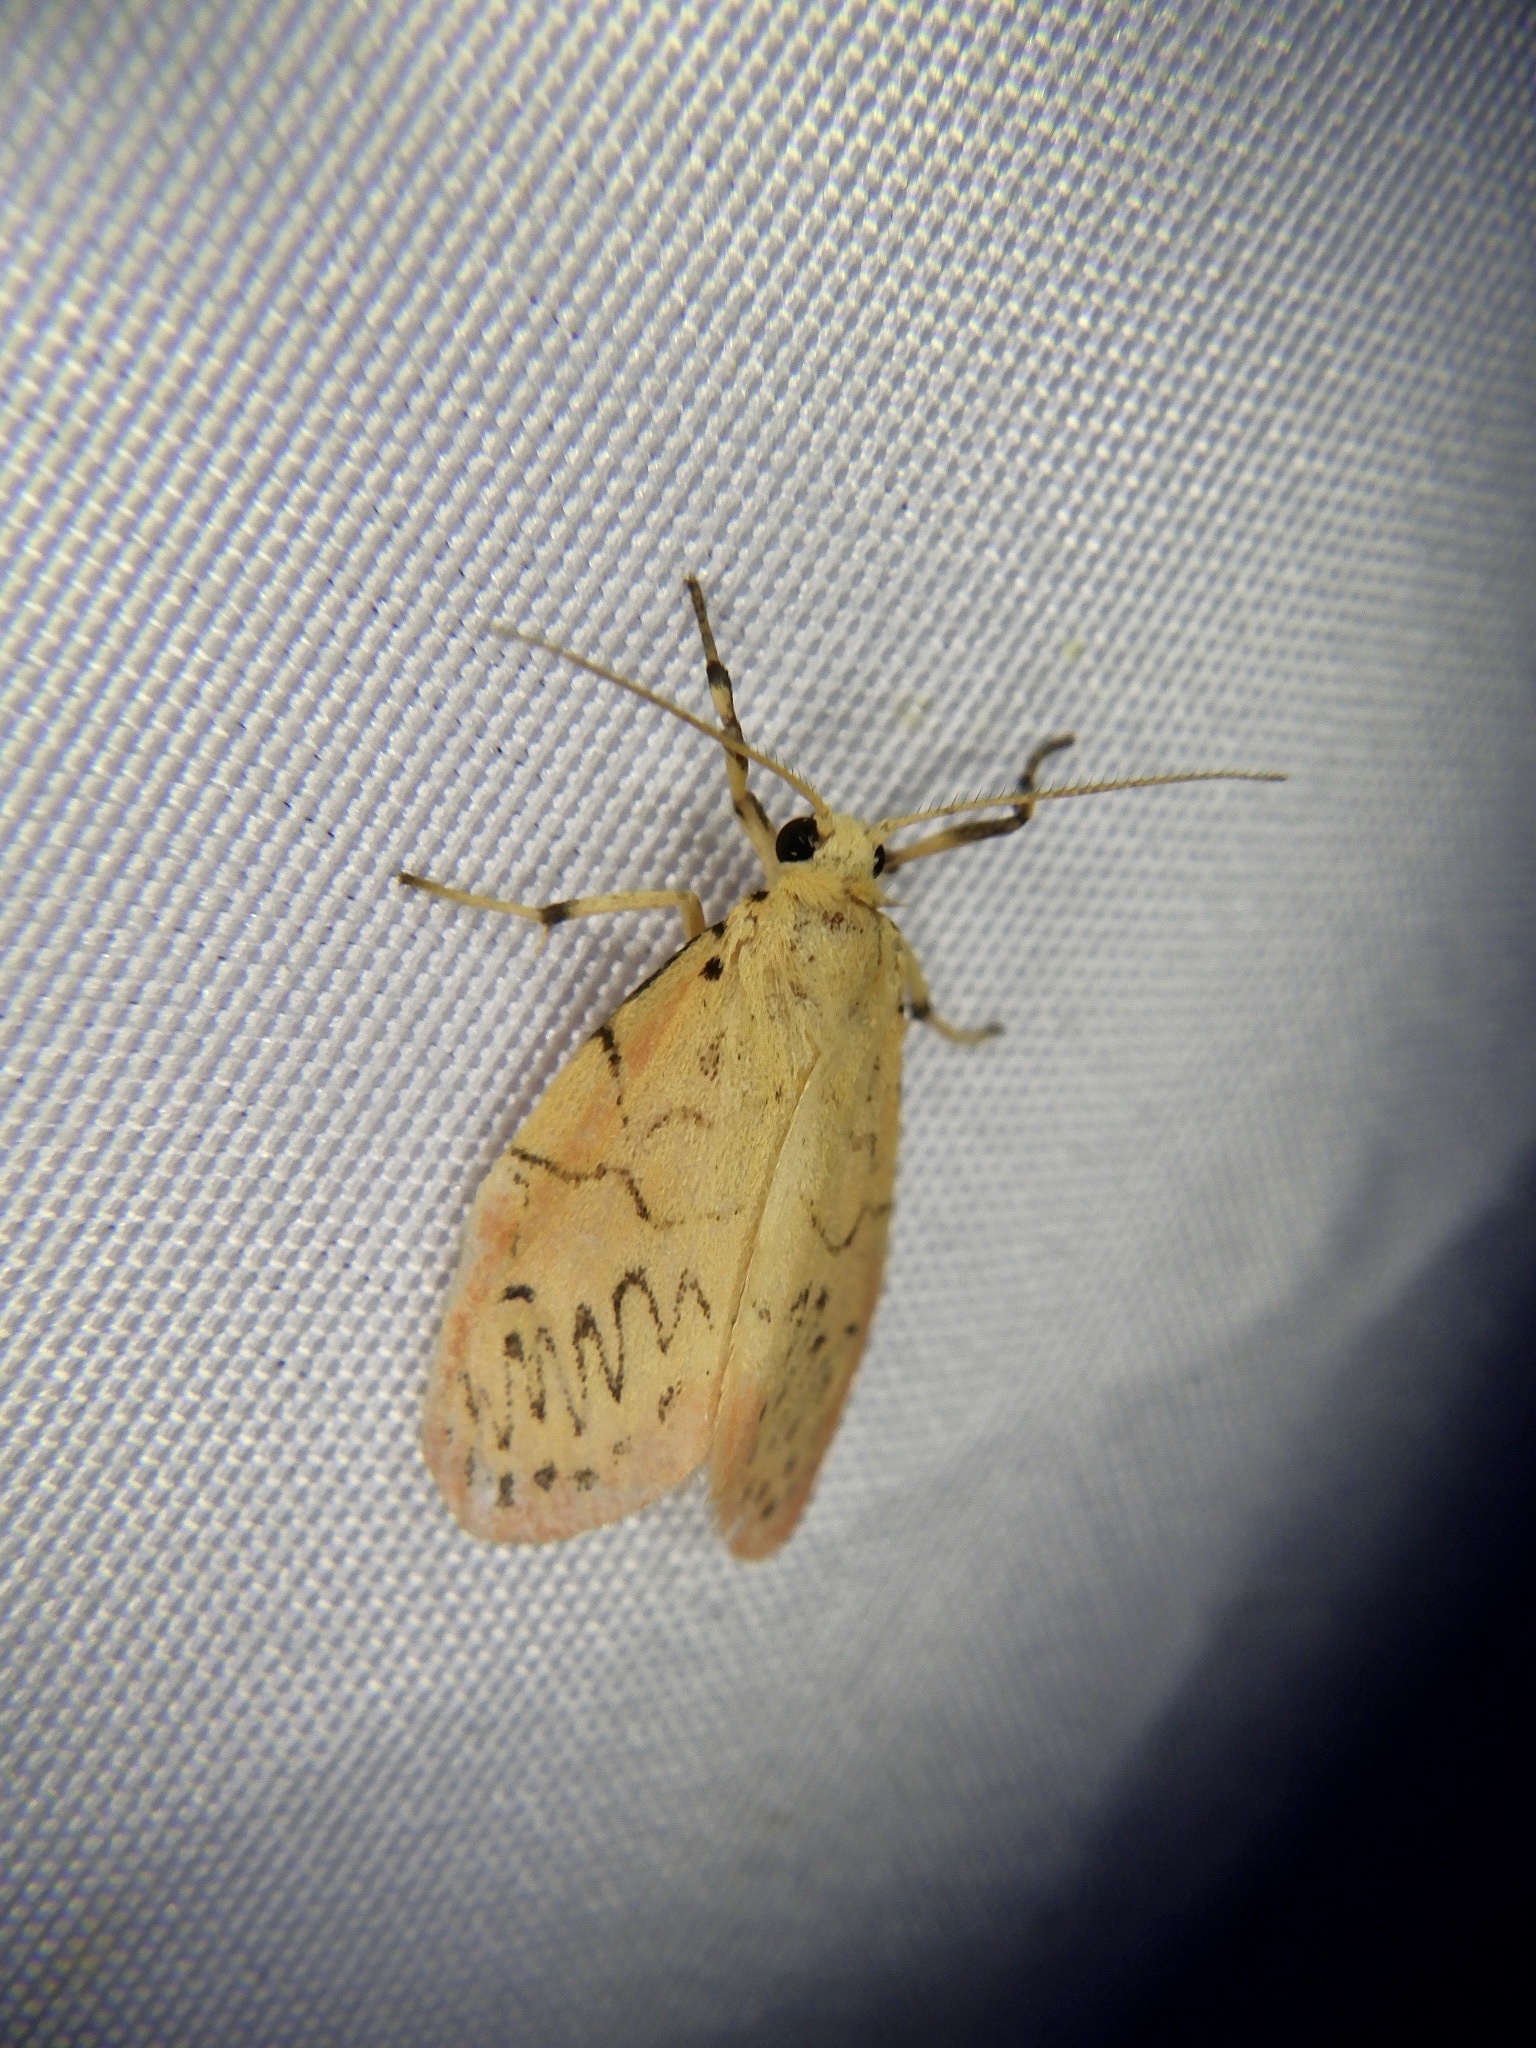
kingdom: Animalia
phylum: Arthropoda
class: Insecta
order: Lepidoptera
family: Erebidae
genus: Miltochrista
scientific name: Miltochrista miniata
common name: Rosy footman
